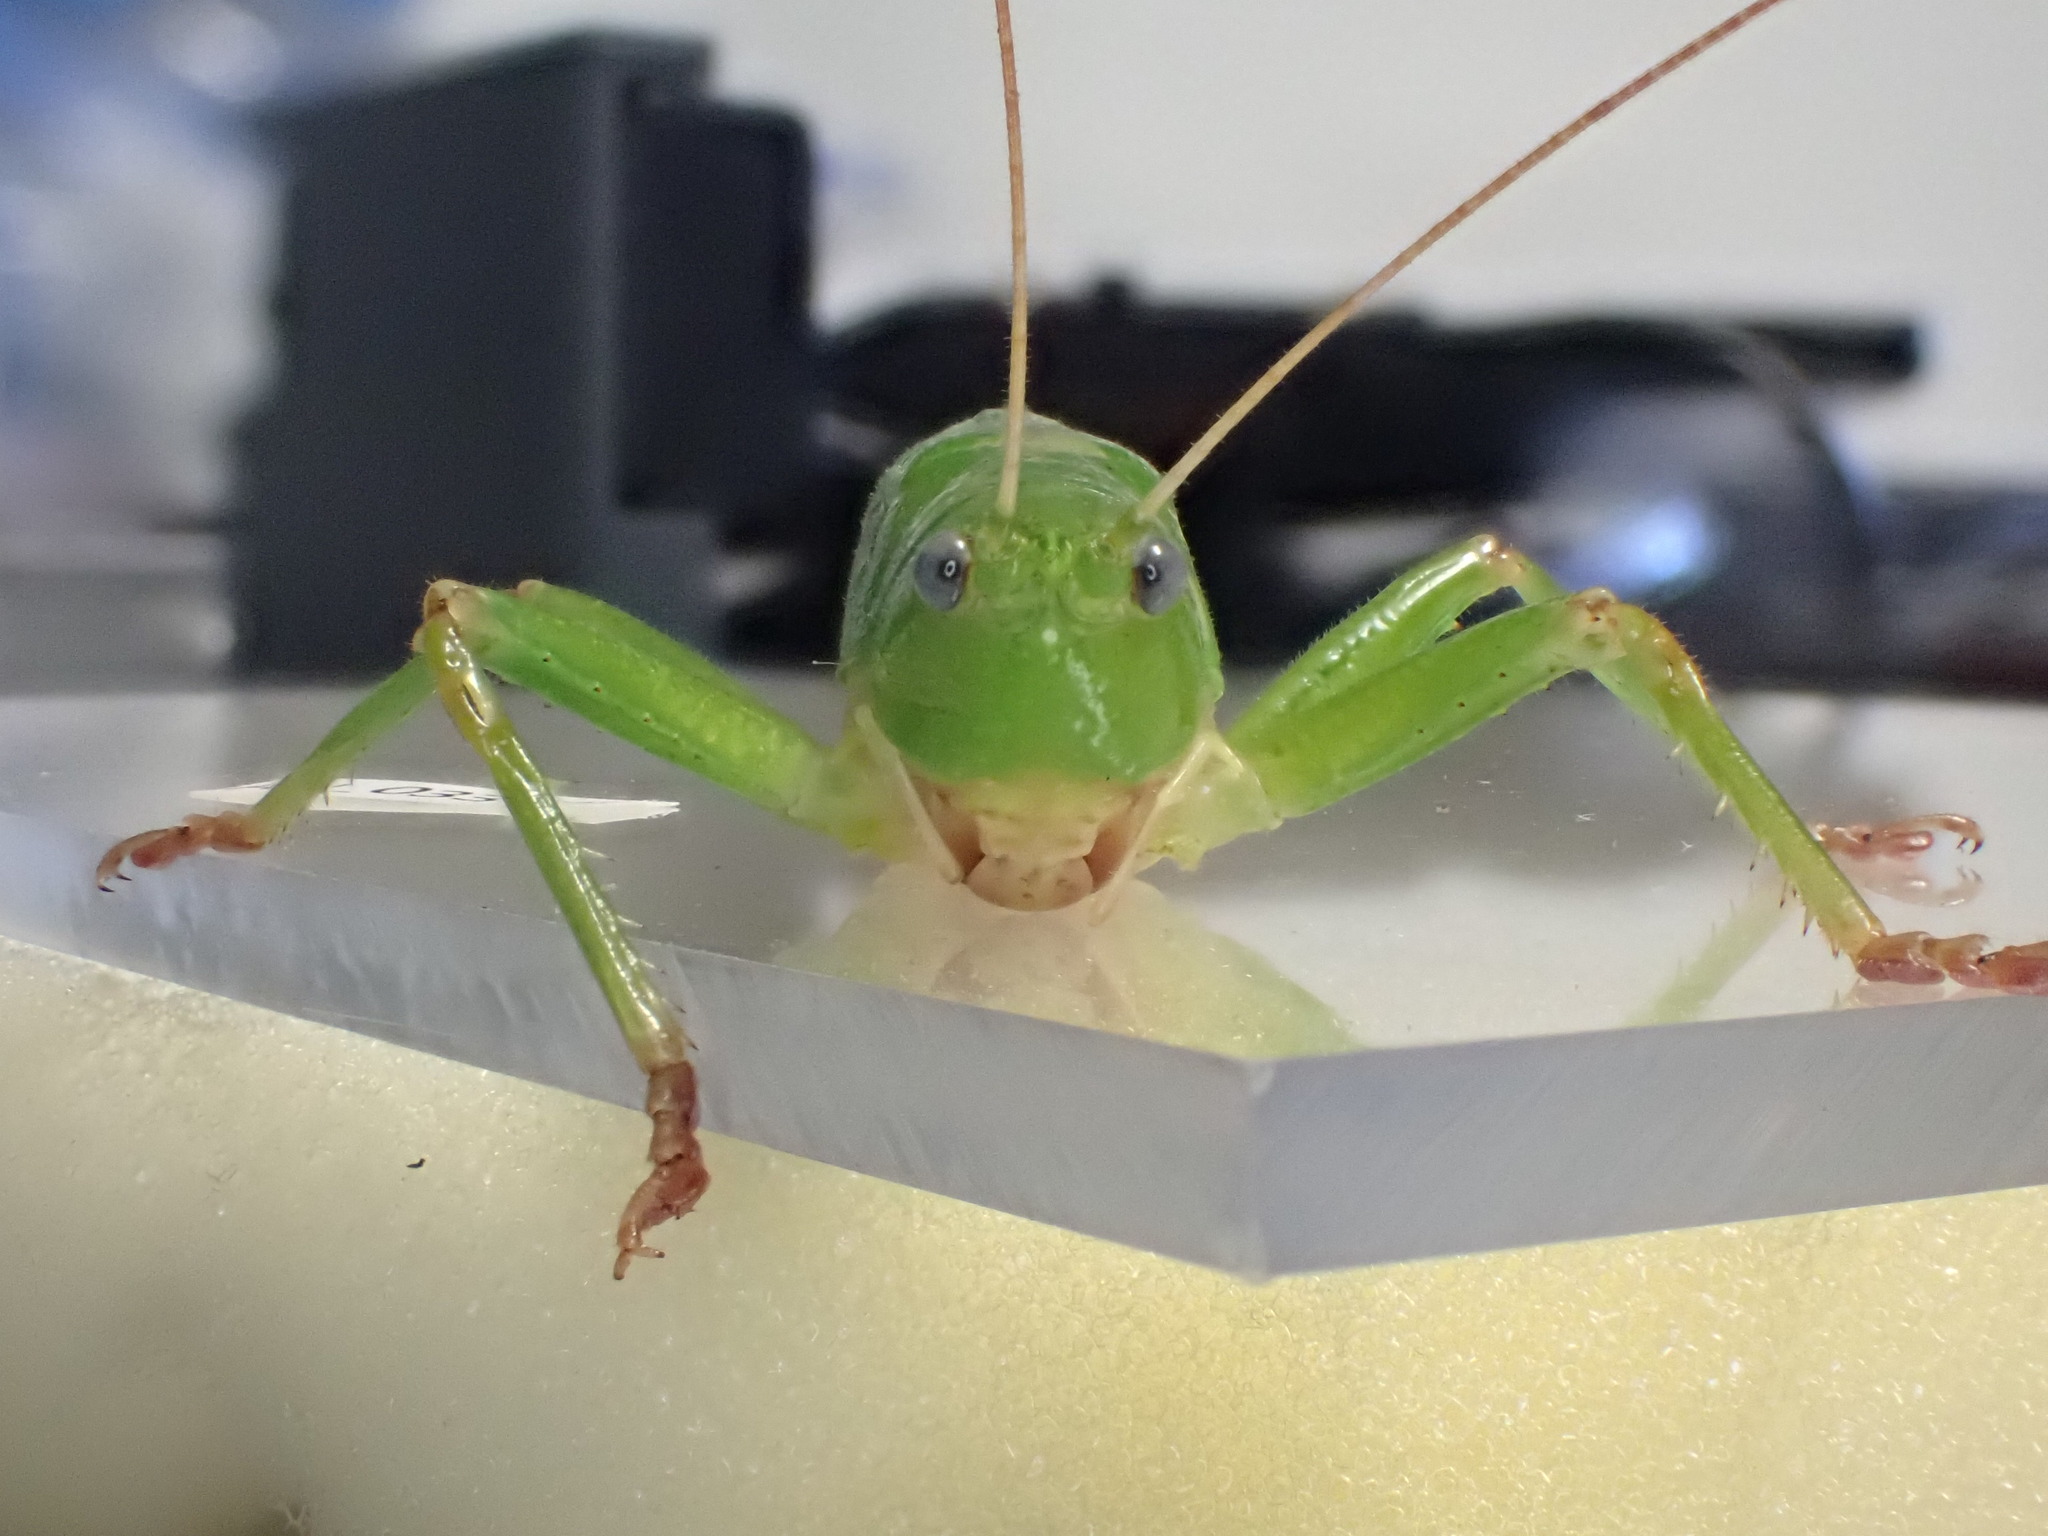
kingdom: Animalia
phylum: Arthropoda
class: Insecta
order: Orthoptera
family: Tettigoniidae
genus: Austrosalomona
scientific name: Austrosalomona destructor
